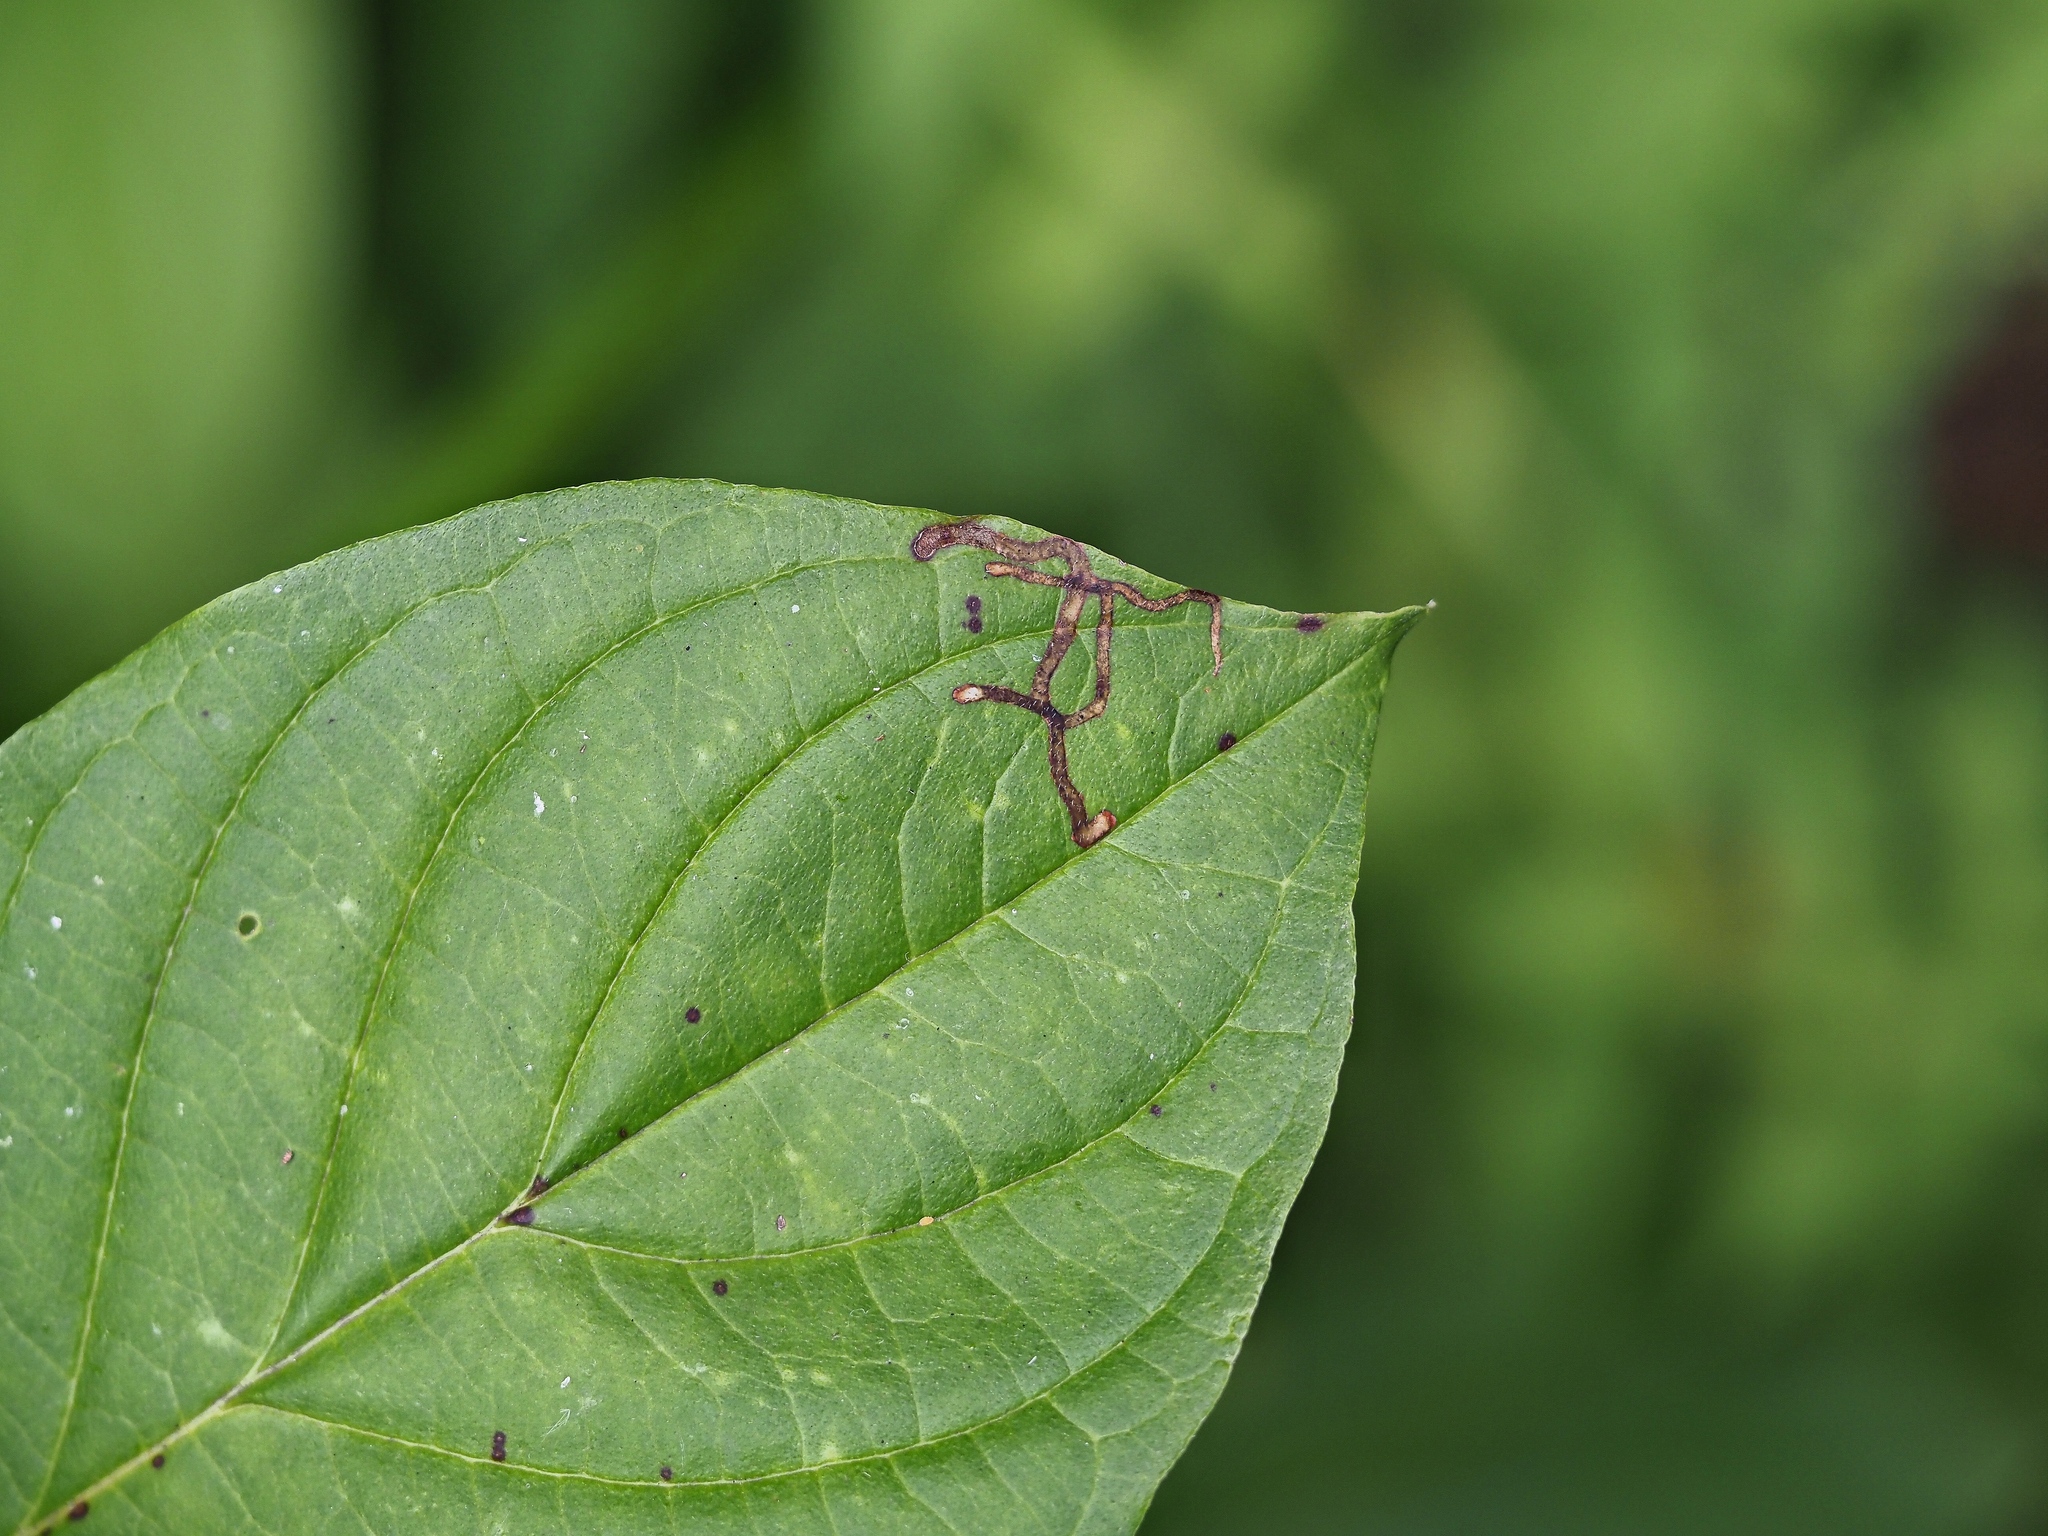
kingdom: Animalia
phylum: Arthropoda
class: Insecta
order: Diptera
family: Agromyzidae
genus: Phytomyza
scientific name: Phytomyza agromyzina
